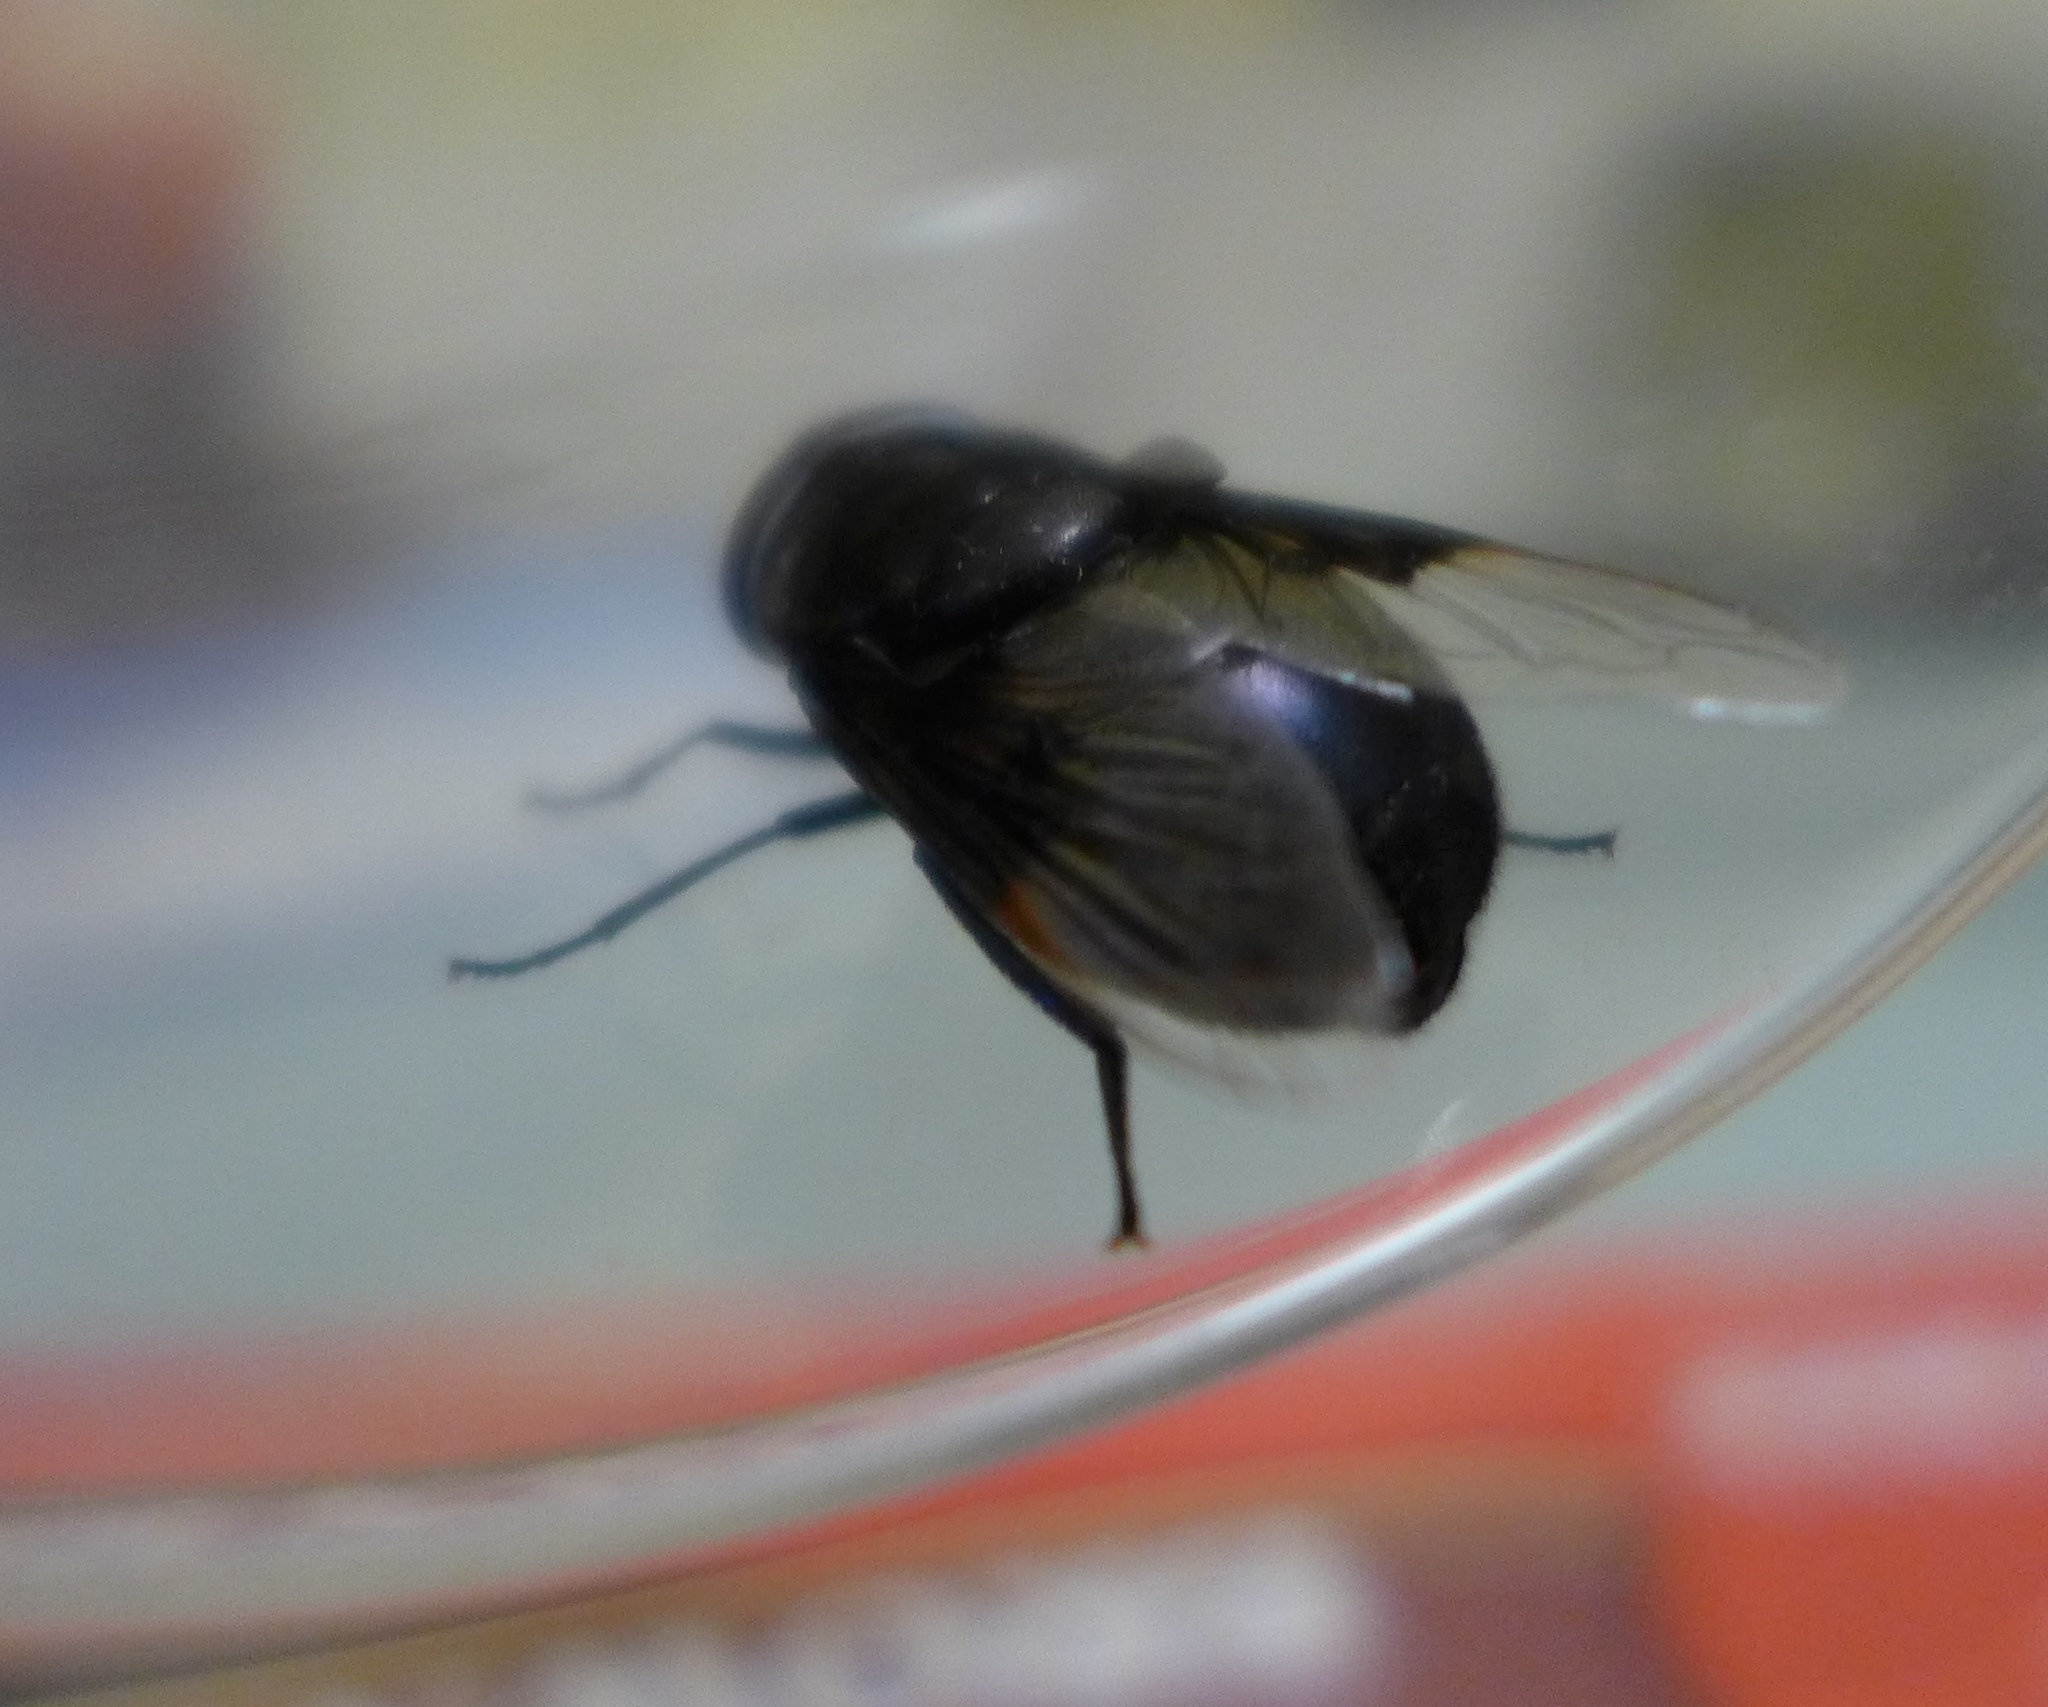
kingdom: Animalia
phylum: Arthropoda
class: Insecta
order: Diptera
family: Syrphidae
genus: Copestylum
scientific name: Copestylum mexicanum
